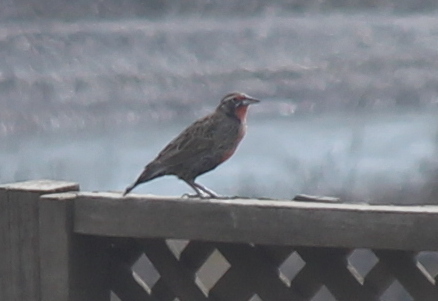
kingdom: Animalia
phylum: Chordata
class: Aves
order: Passeriformes
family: Icteridae
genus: Sturnella
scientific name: Sturnella loyca
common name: Long-tailed meadowlark
